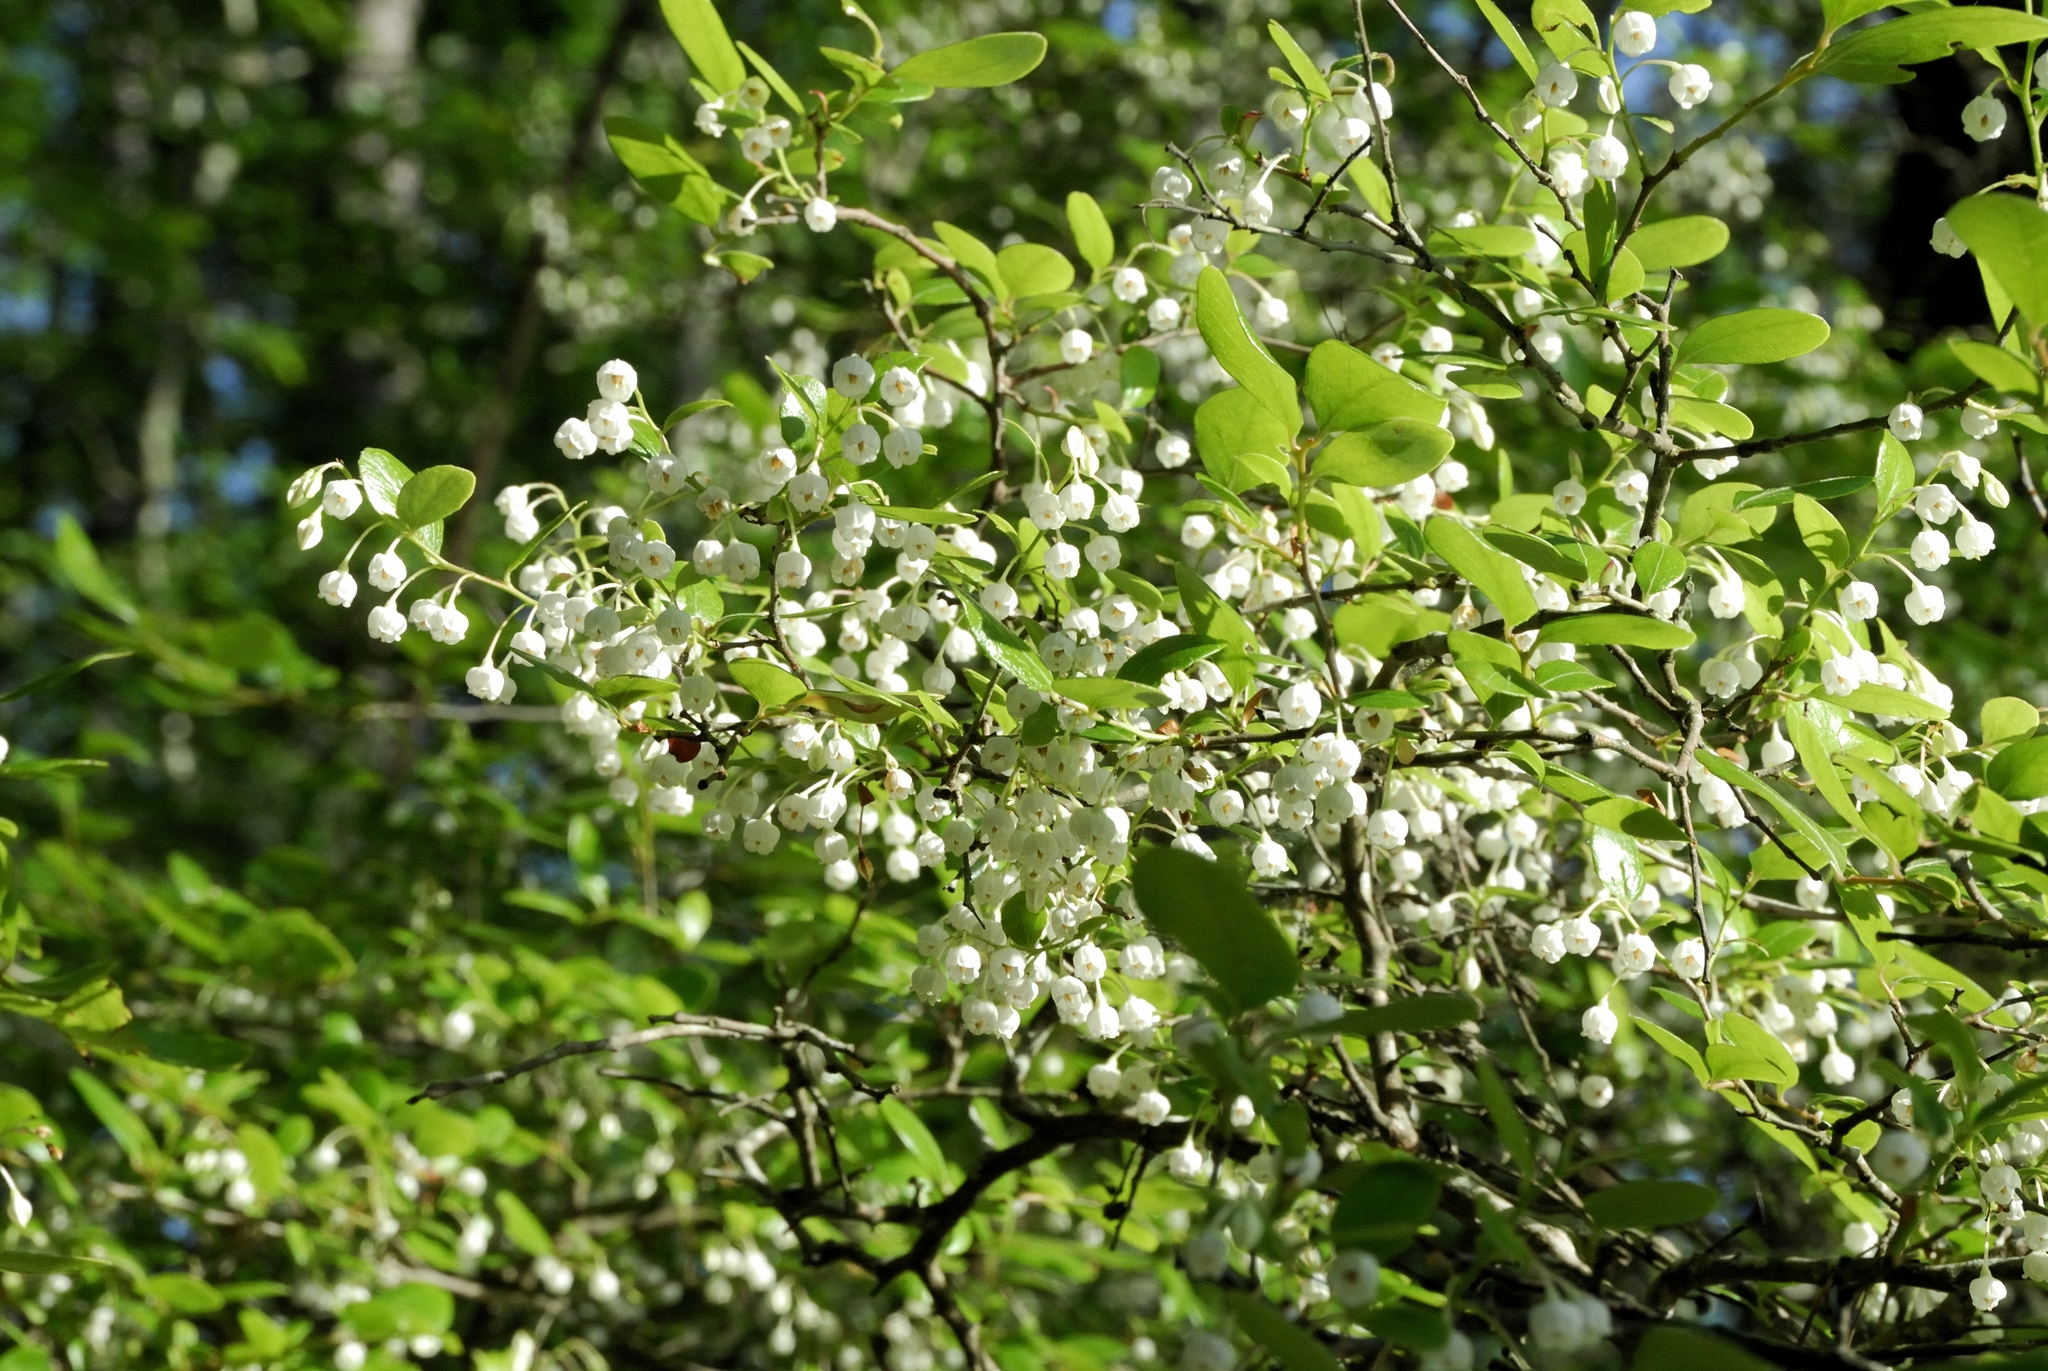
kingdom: Plantae
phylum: Tracheophyta
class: Magnoliopsida
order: Ericales
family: Ericaceae
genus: Vaccinium
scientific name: Vaccinium arboreum
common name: Farkleberry
